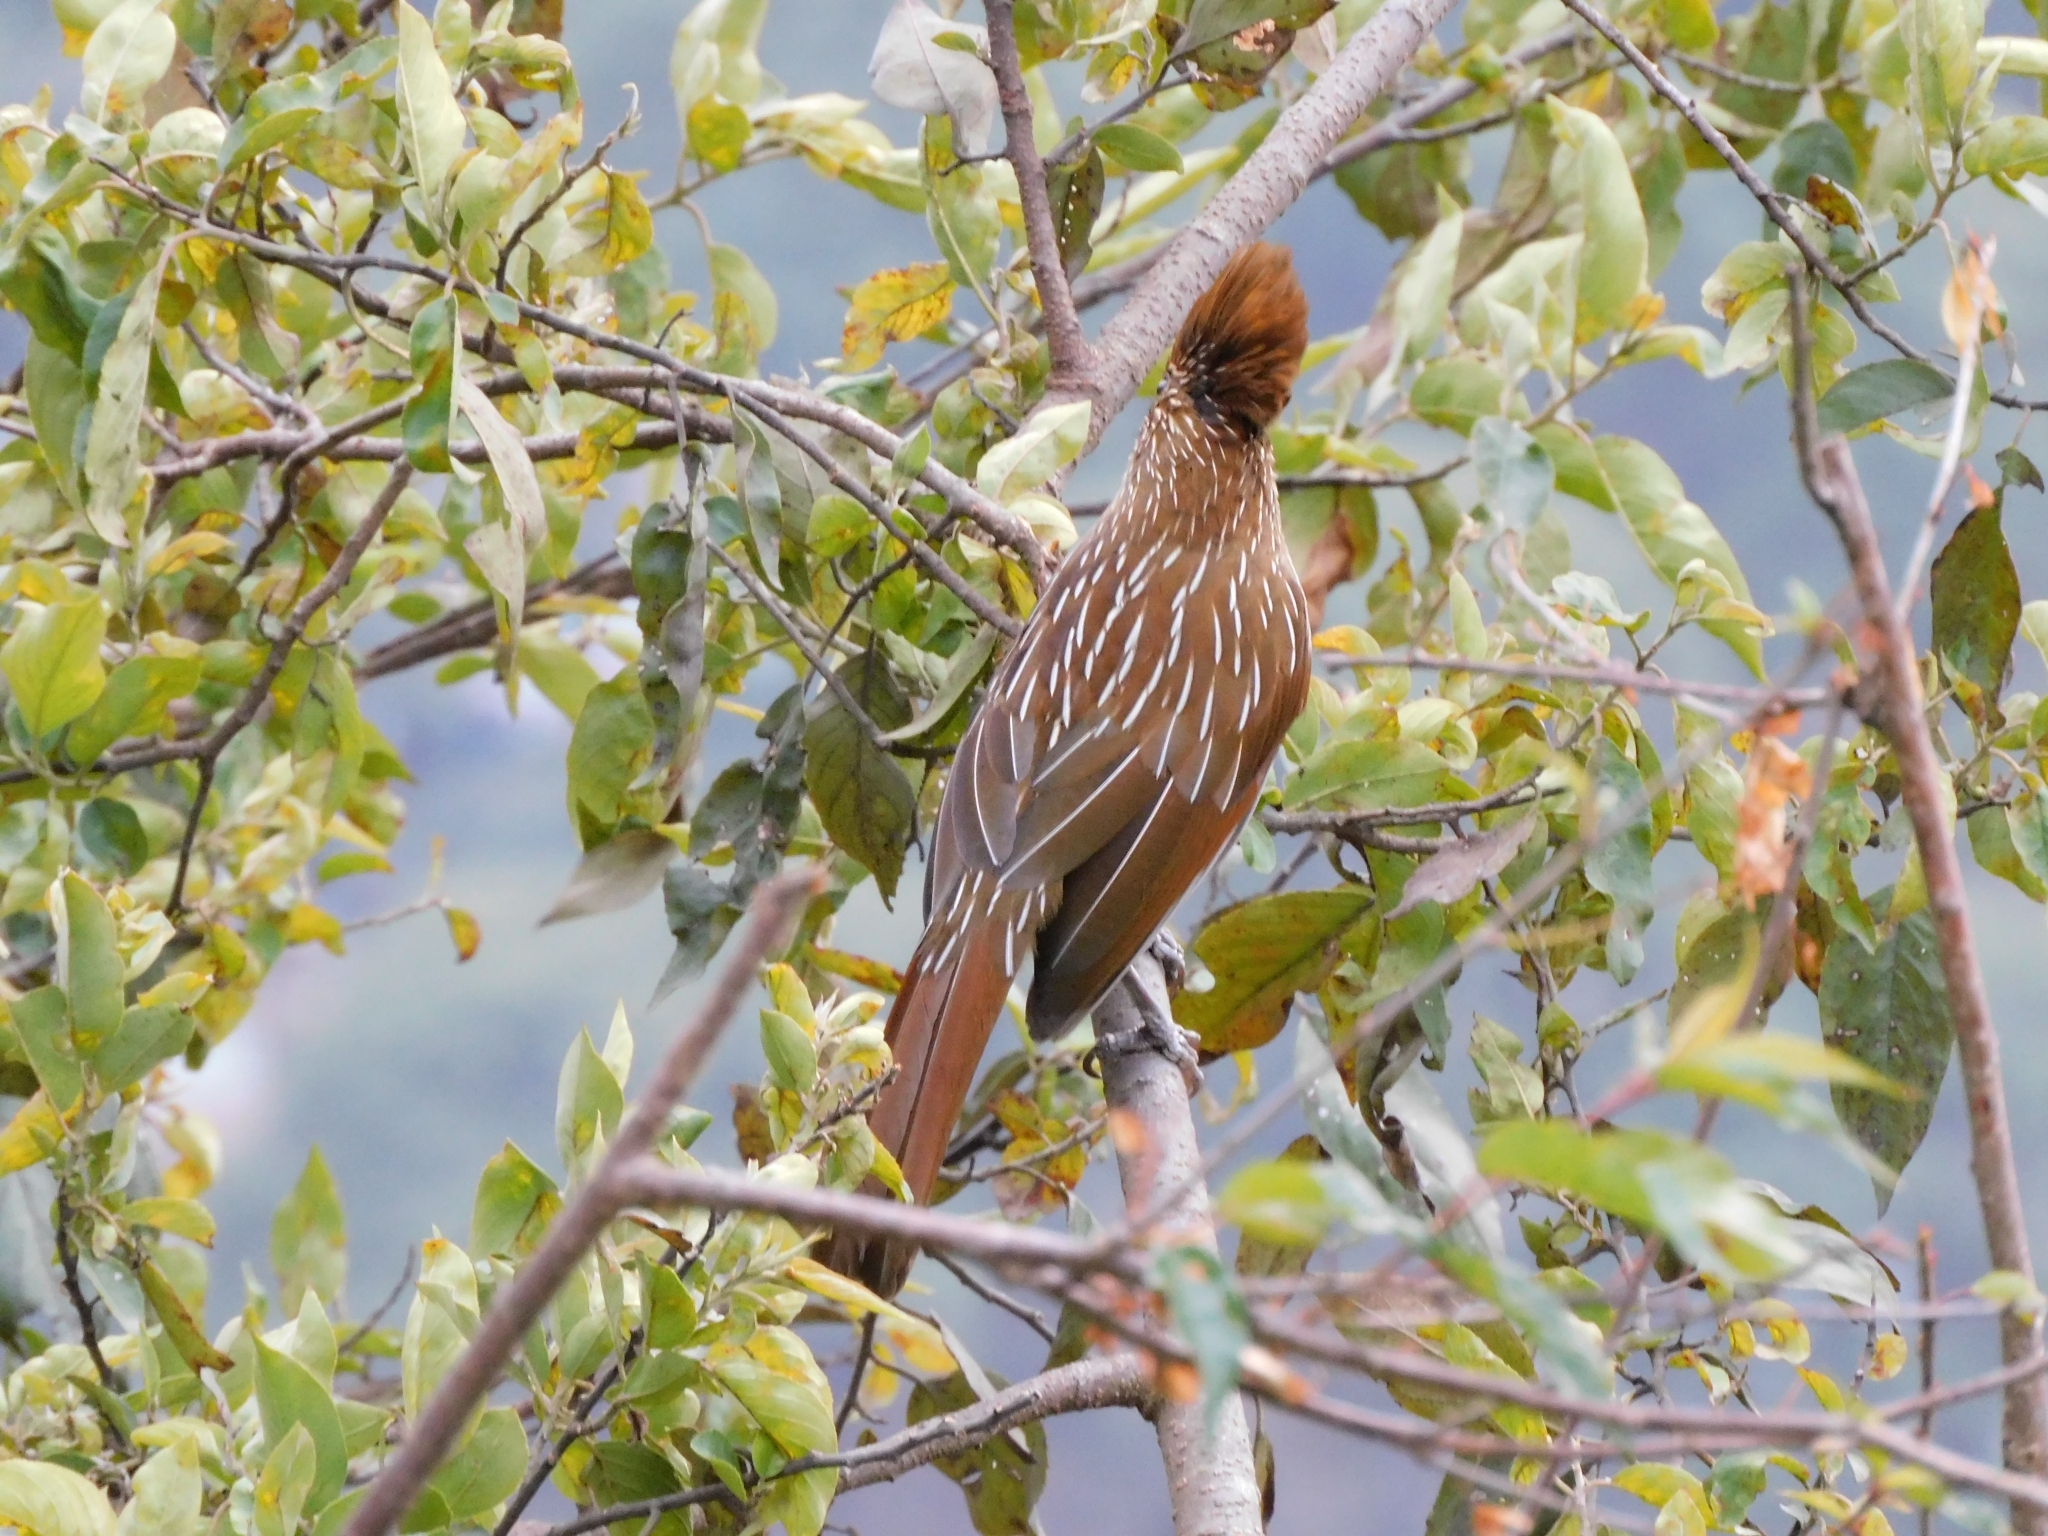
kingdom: Animalia
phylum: Chordata
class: Aves
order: Passeriformes
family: Leiothrichidae
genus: Garrulax
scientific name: Garrulax striatus
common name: Striated laughingthrush
